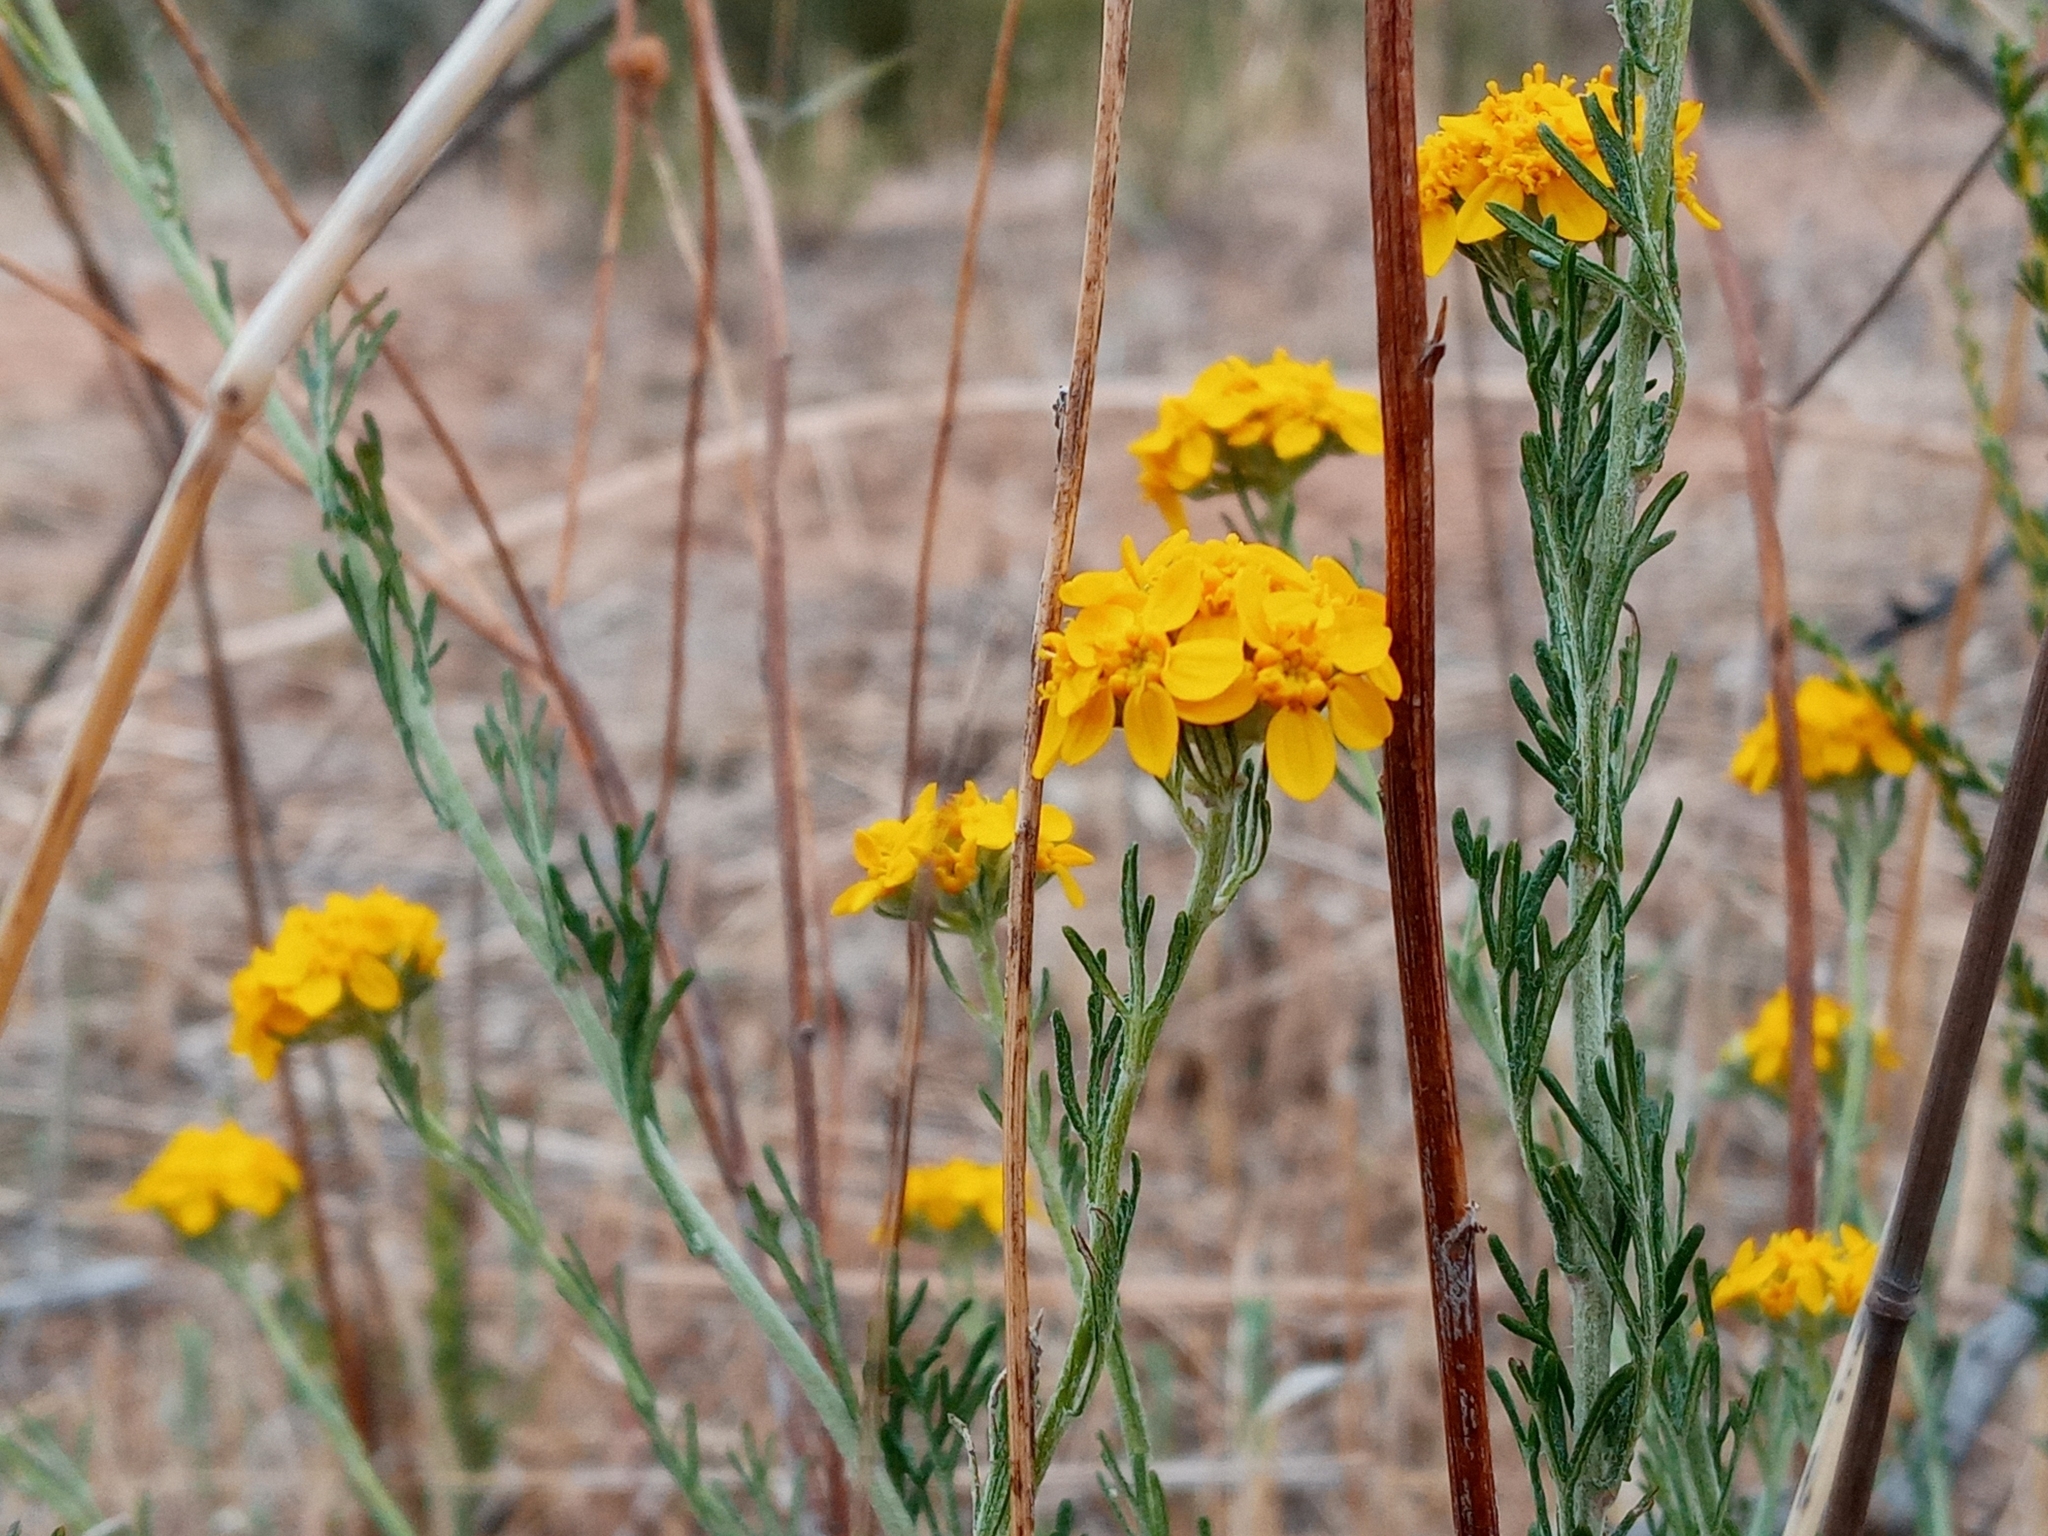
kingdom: Plantae
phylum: Tracheophyta
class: Magnoliopsida
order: Asterales
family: Asteraceae
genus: Eriophyllum
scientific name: Eriophyllum confertiflorum
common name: Golden-yarrow
